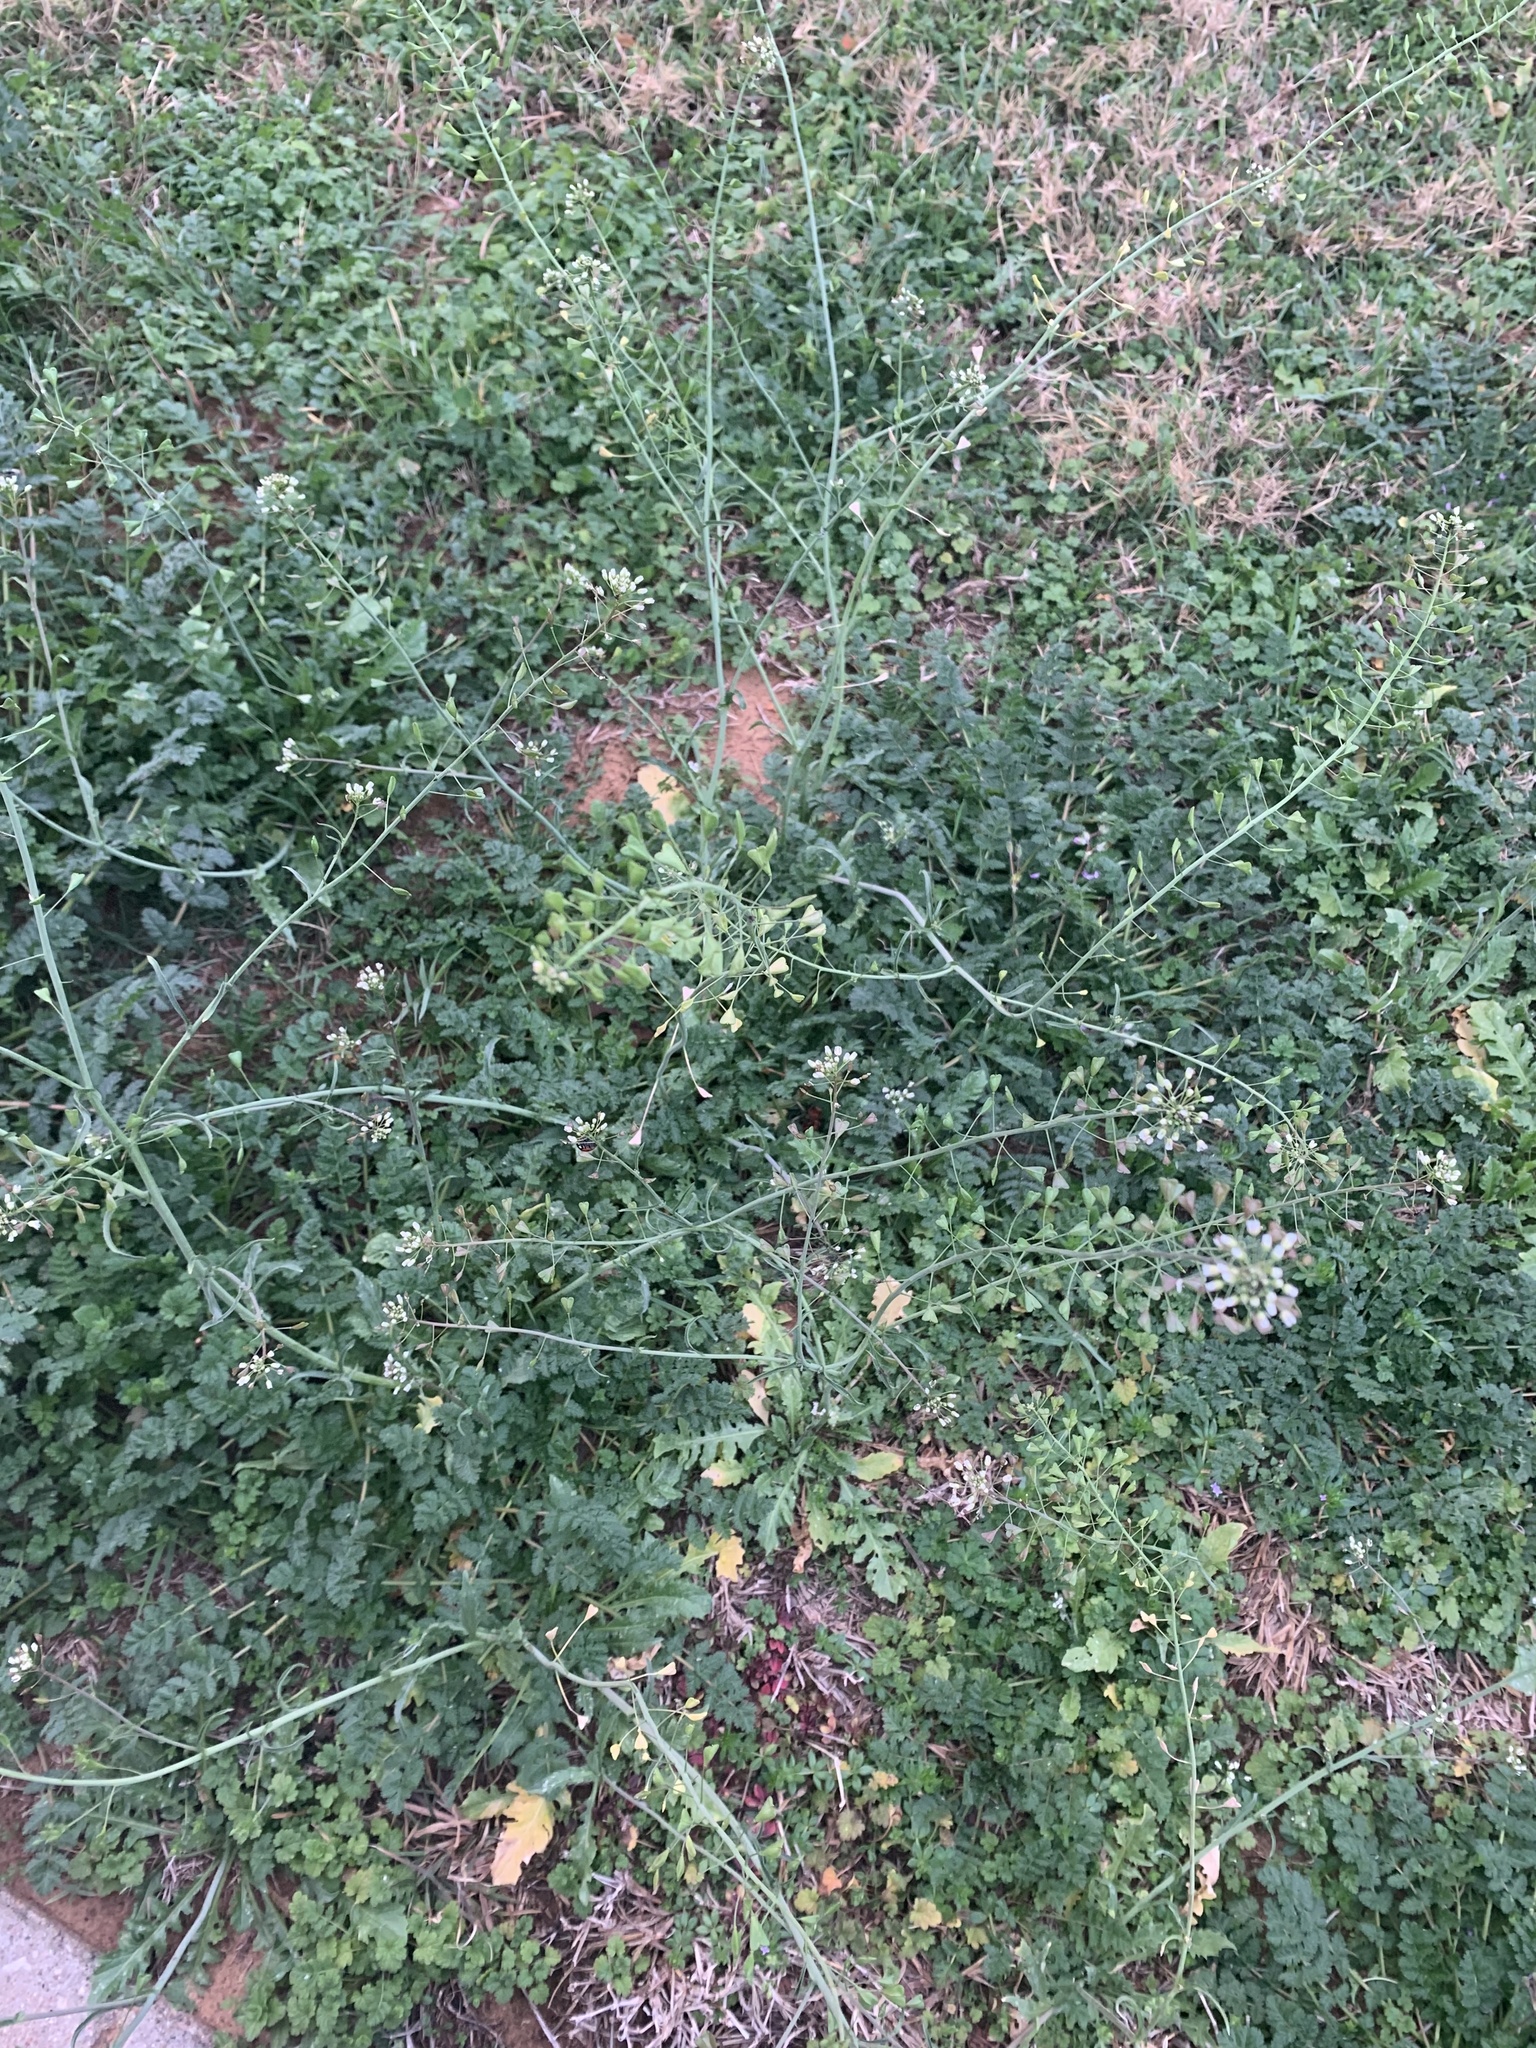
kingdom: Plantae
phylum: Tracheophyta
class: Magnoliopsida
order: Brassicales
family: Brassicaceae
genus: Capsella
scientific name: Capsella bursa-pastoris
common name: Shepherd's purse
